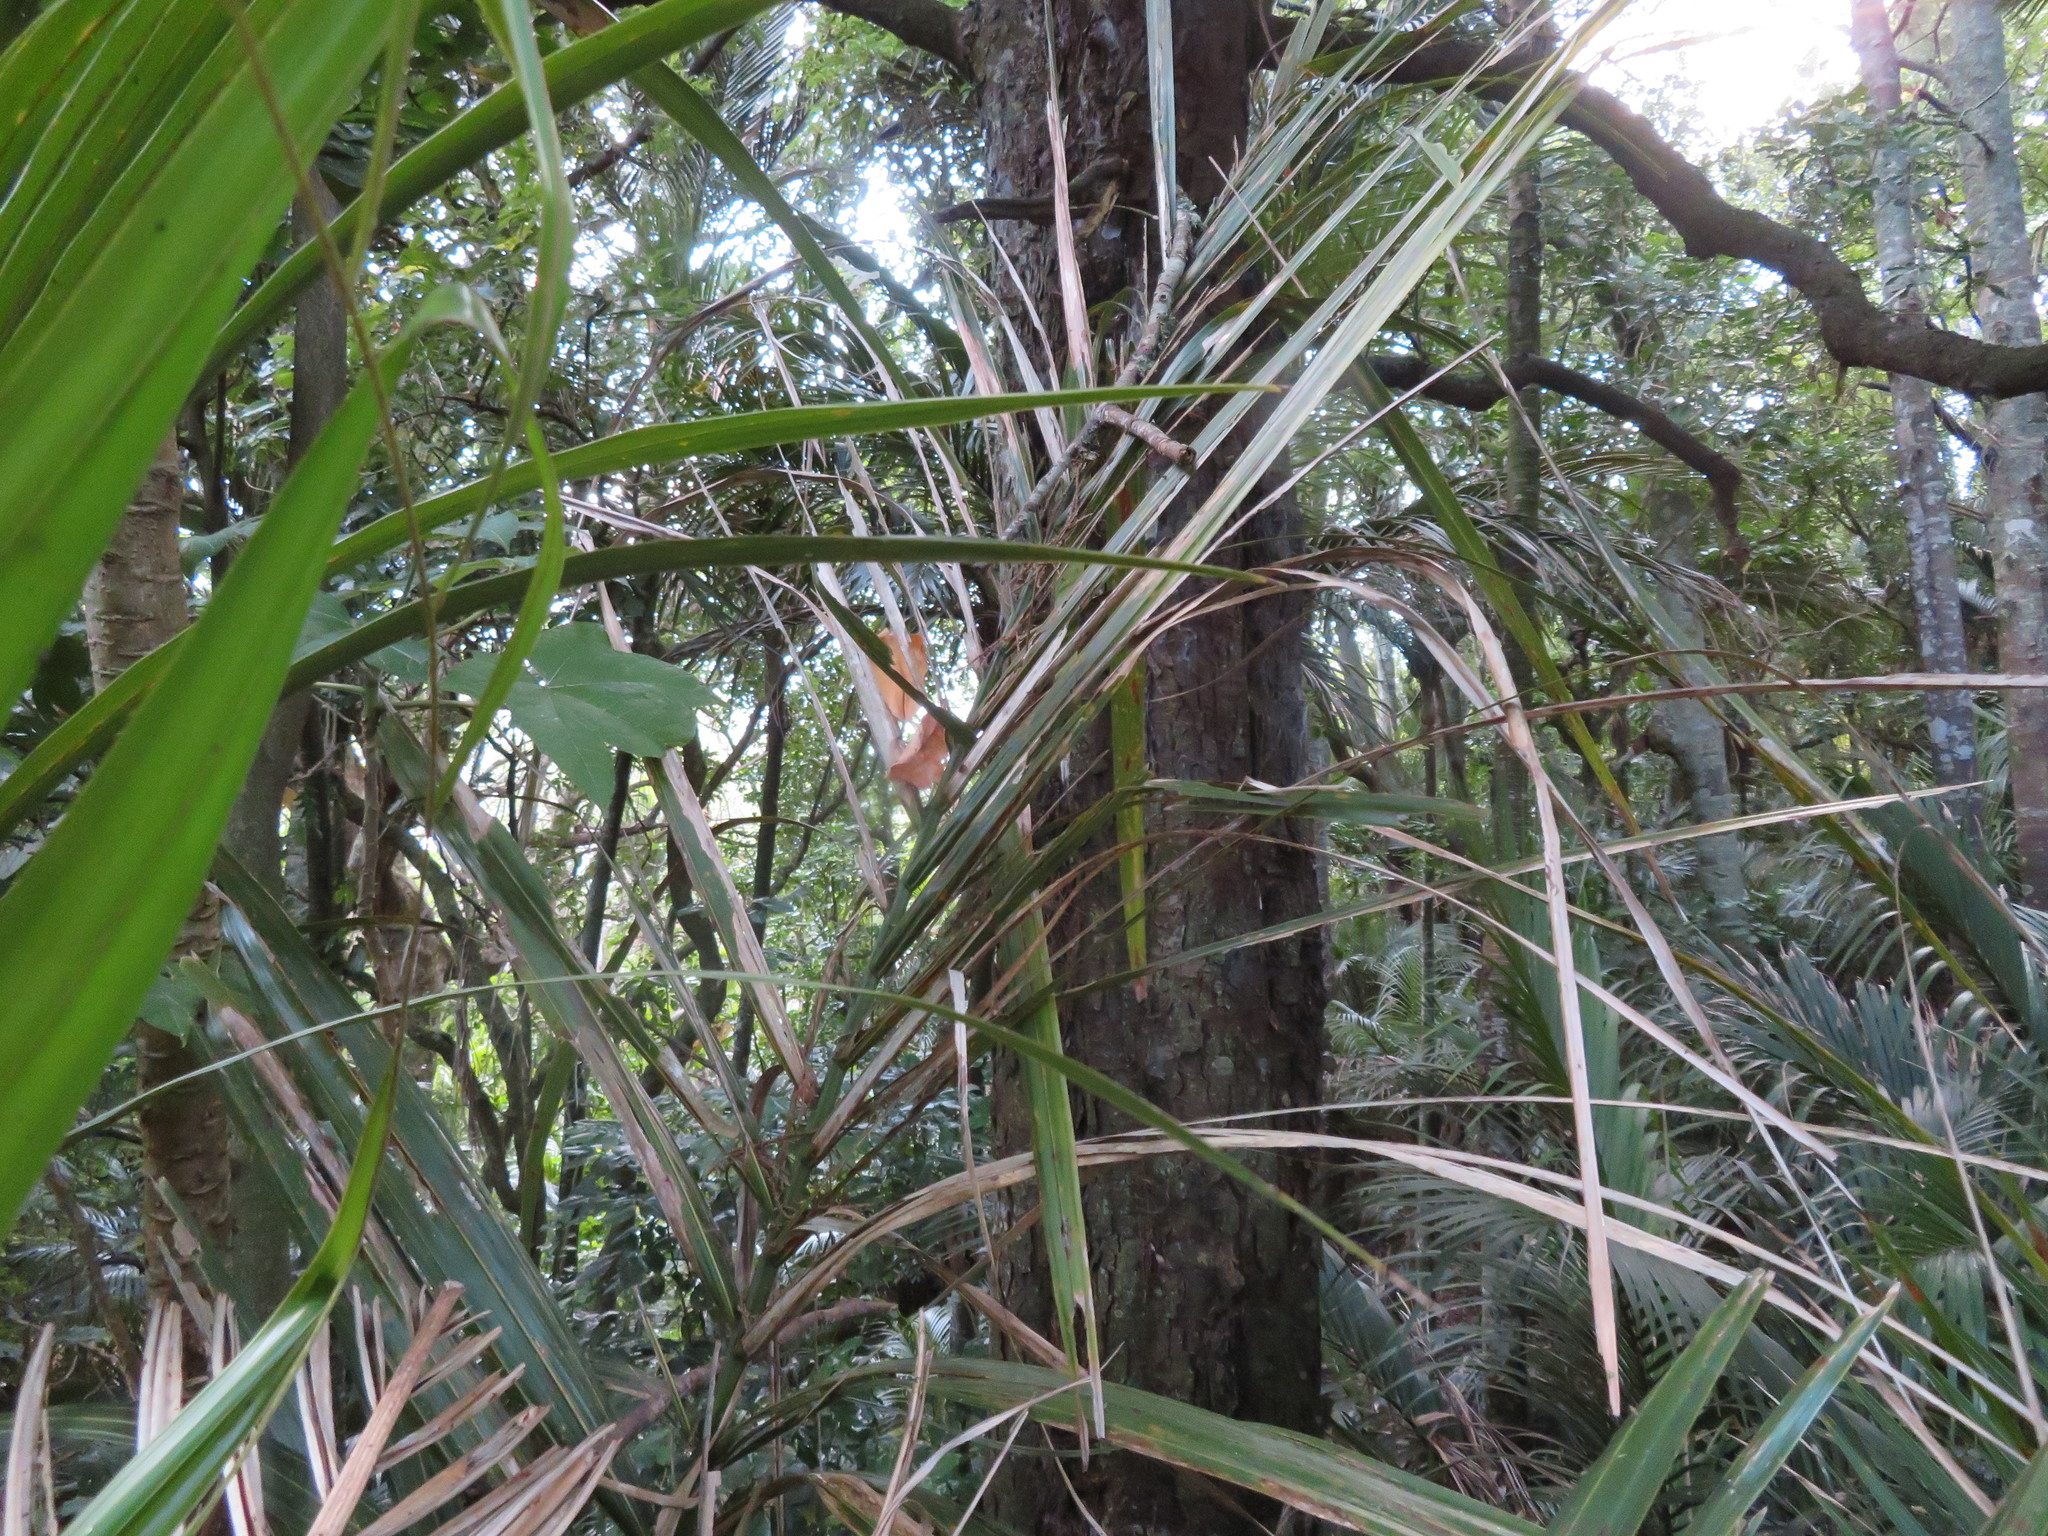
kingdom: Plantae
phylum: Tracheophyta
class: Liliopsida
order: Arecales
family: Arecaceae
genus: Rhopalostylis
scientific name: Rhopalostylis sapida
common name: Feather-duster palm
